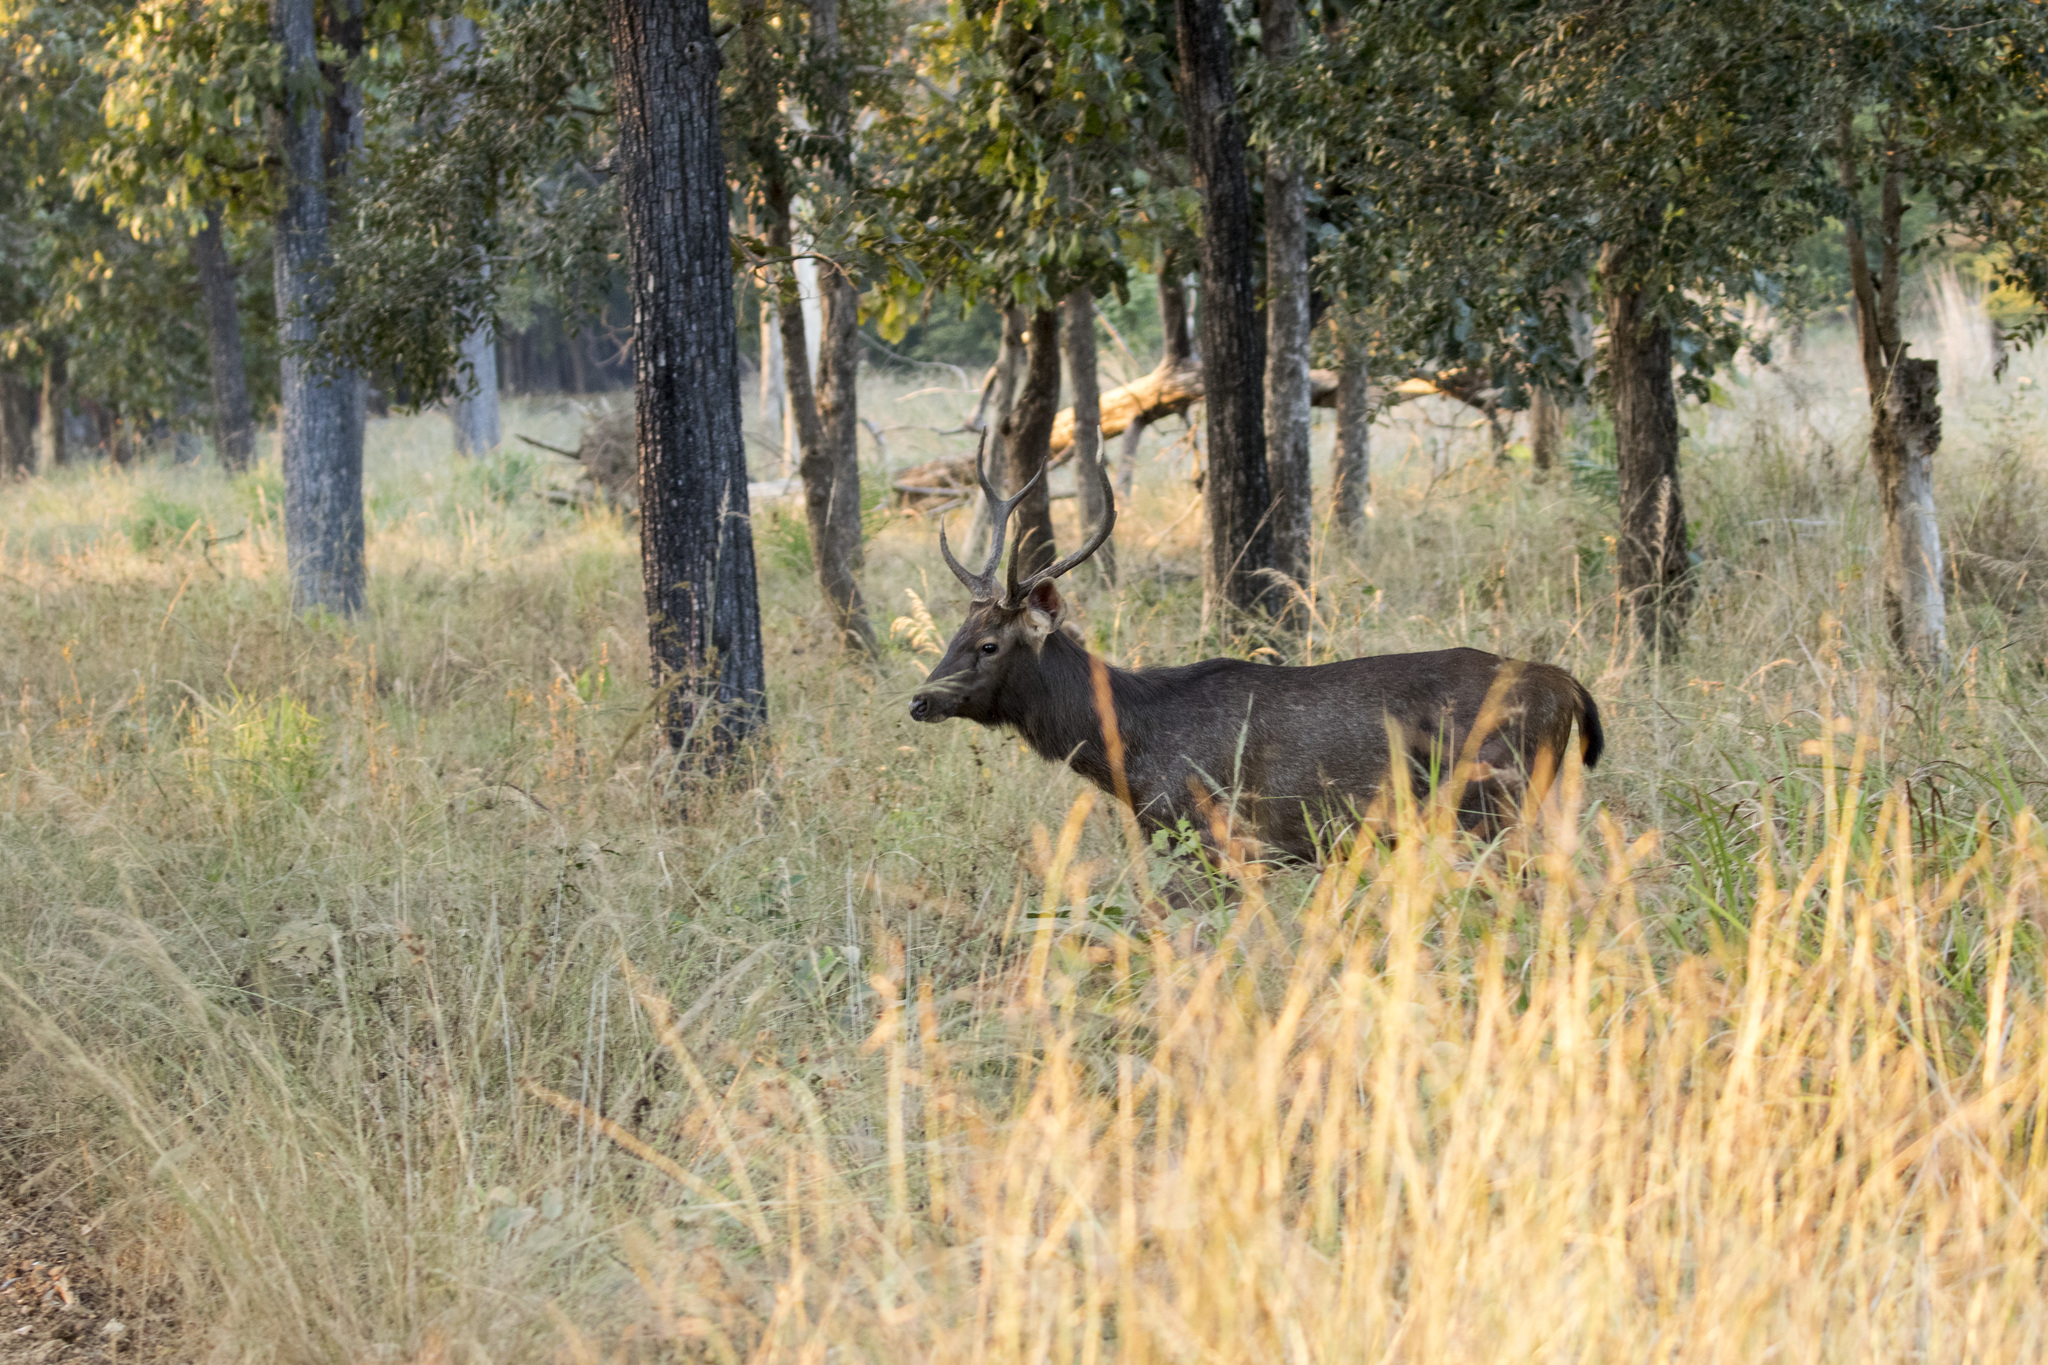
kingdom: Animalia
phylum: Chordata
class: Mammalia
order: Artiodactyla
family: Cervidae
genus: Rusa
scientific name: Rusa unicolor
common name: Sambar
